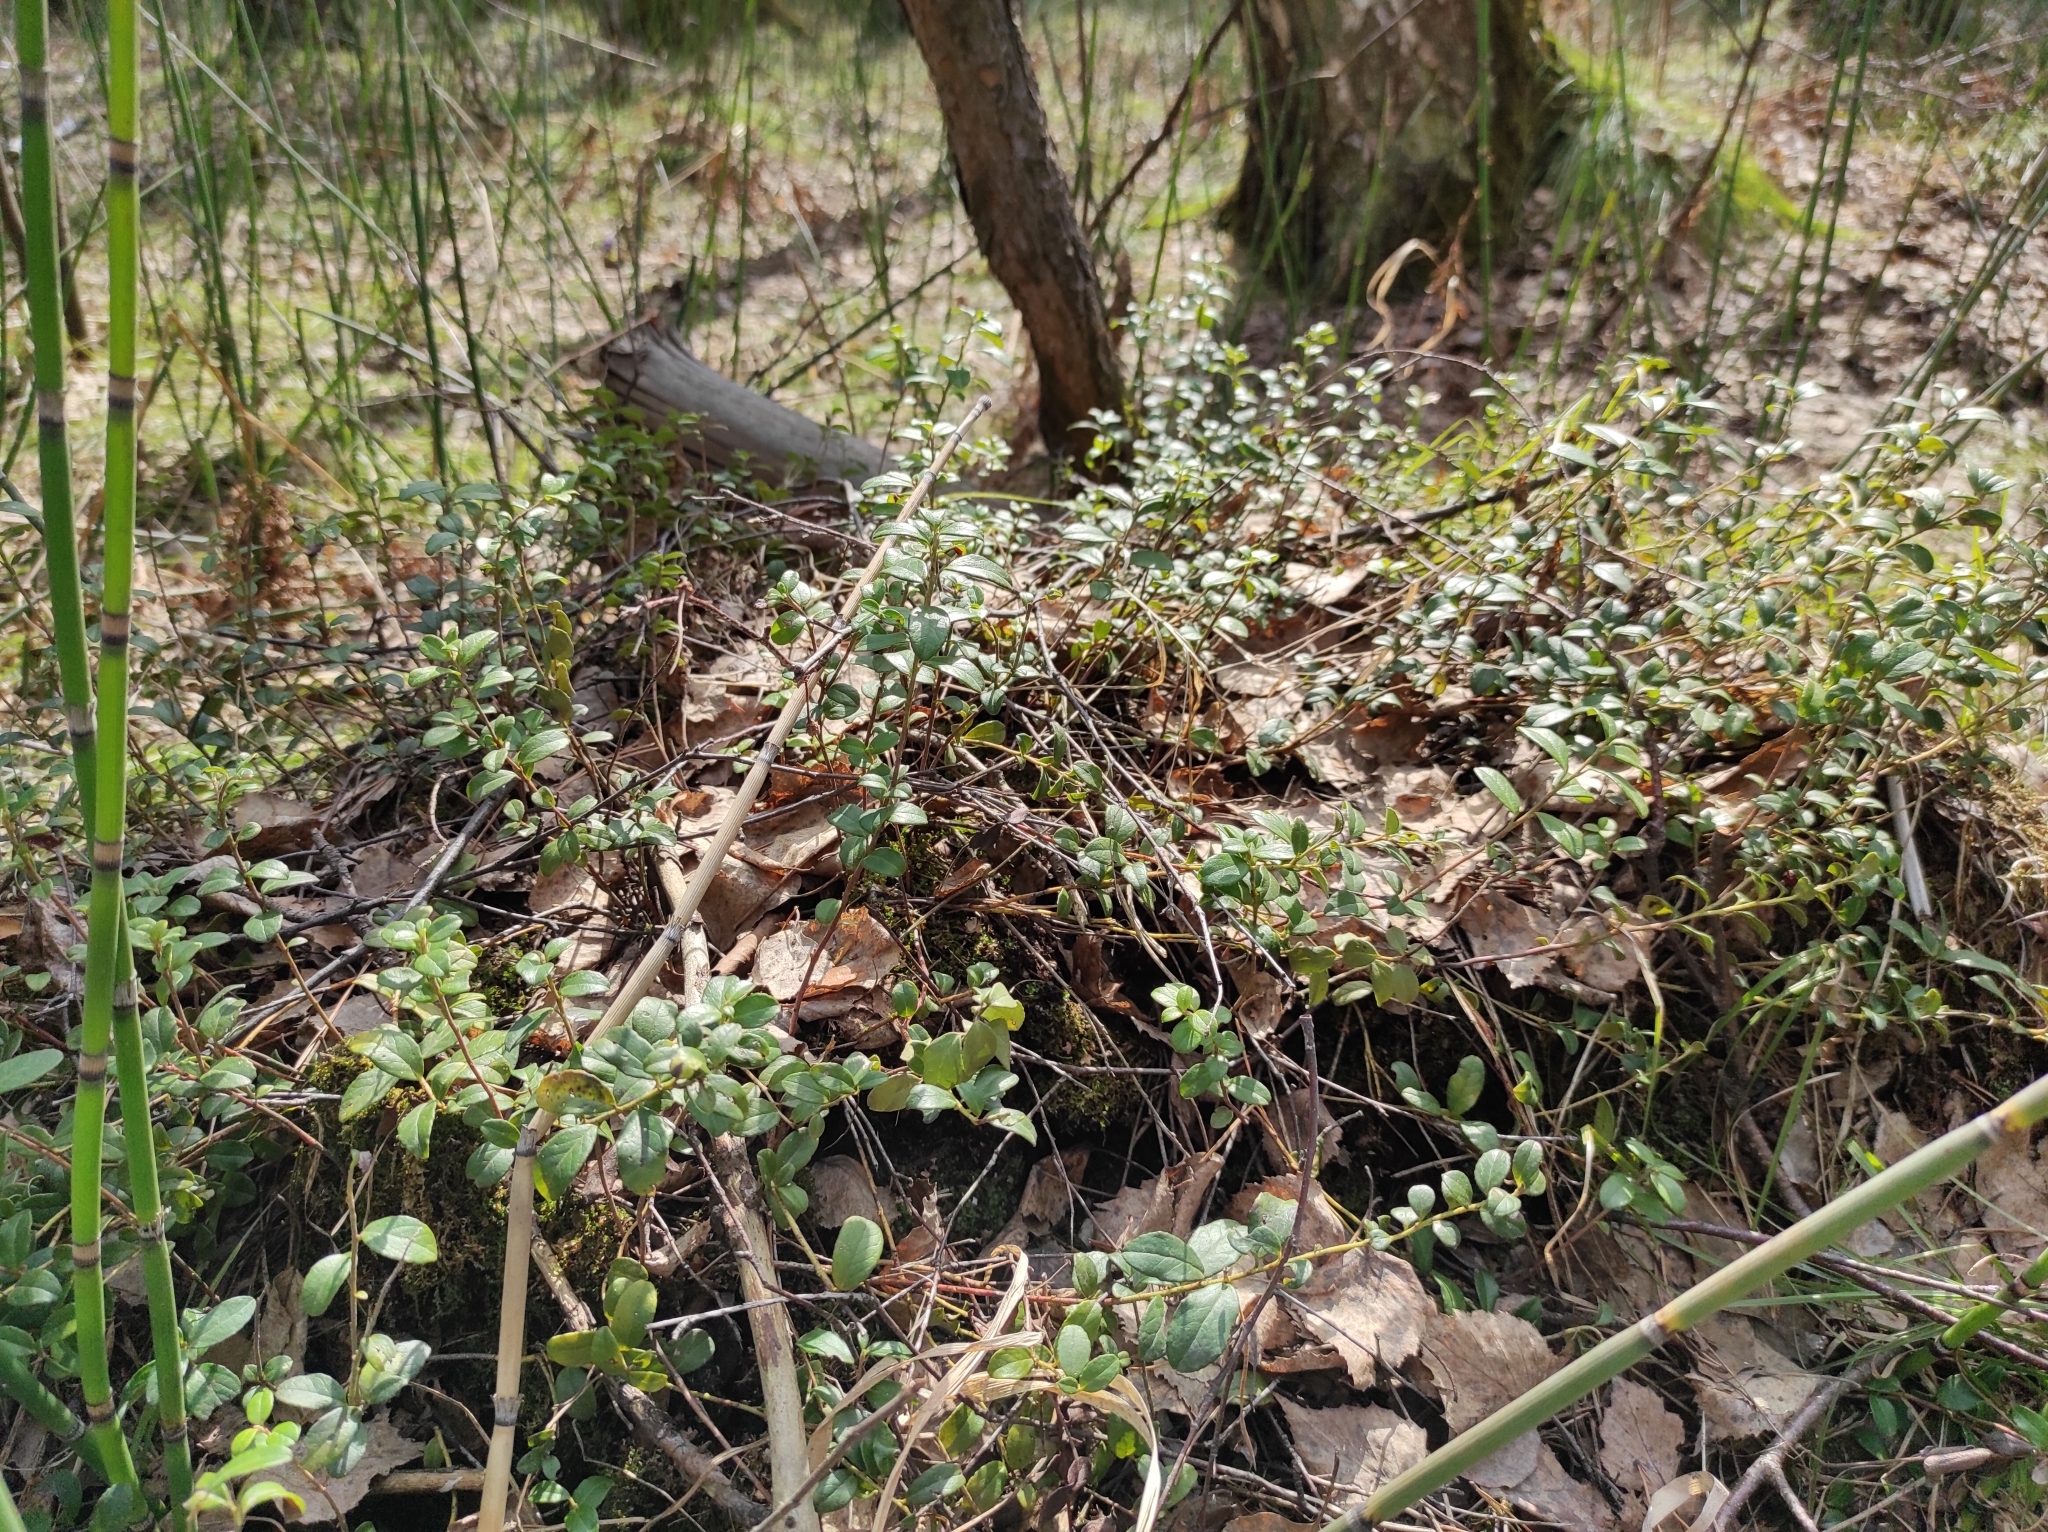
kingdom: Plantae
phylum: Tracheophyta
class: Magnoliopsida
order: Ericales
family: Ericaceae
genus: Vaccinium
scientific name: Vaccinium vitis-idaea
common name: Cowberry
